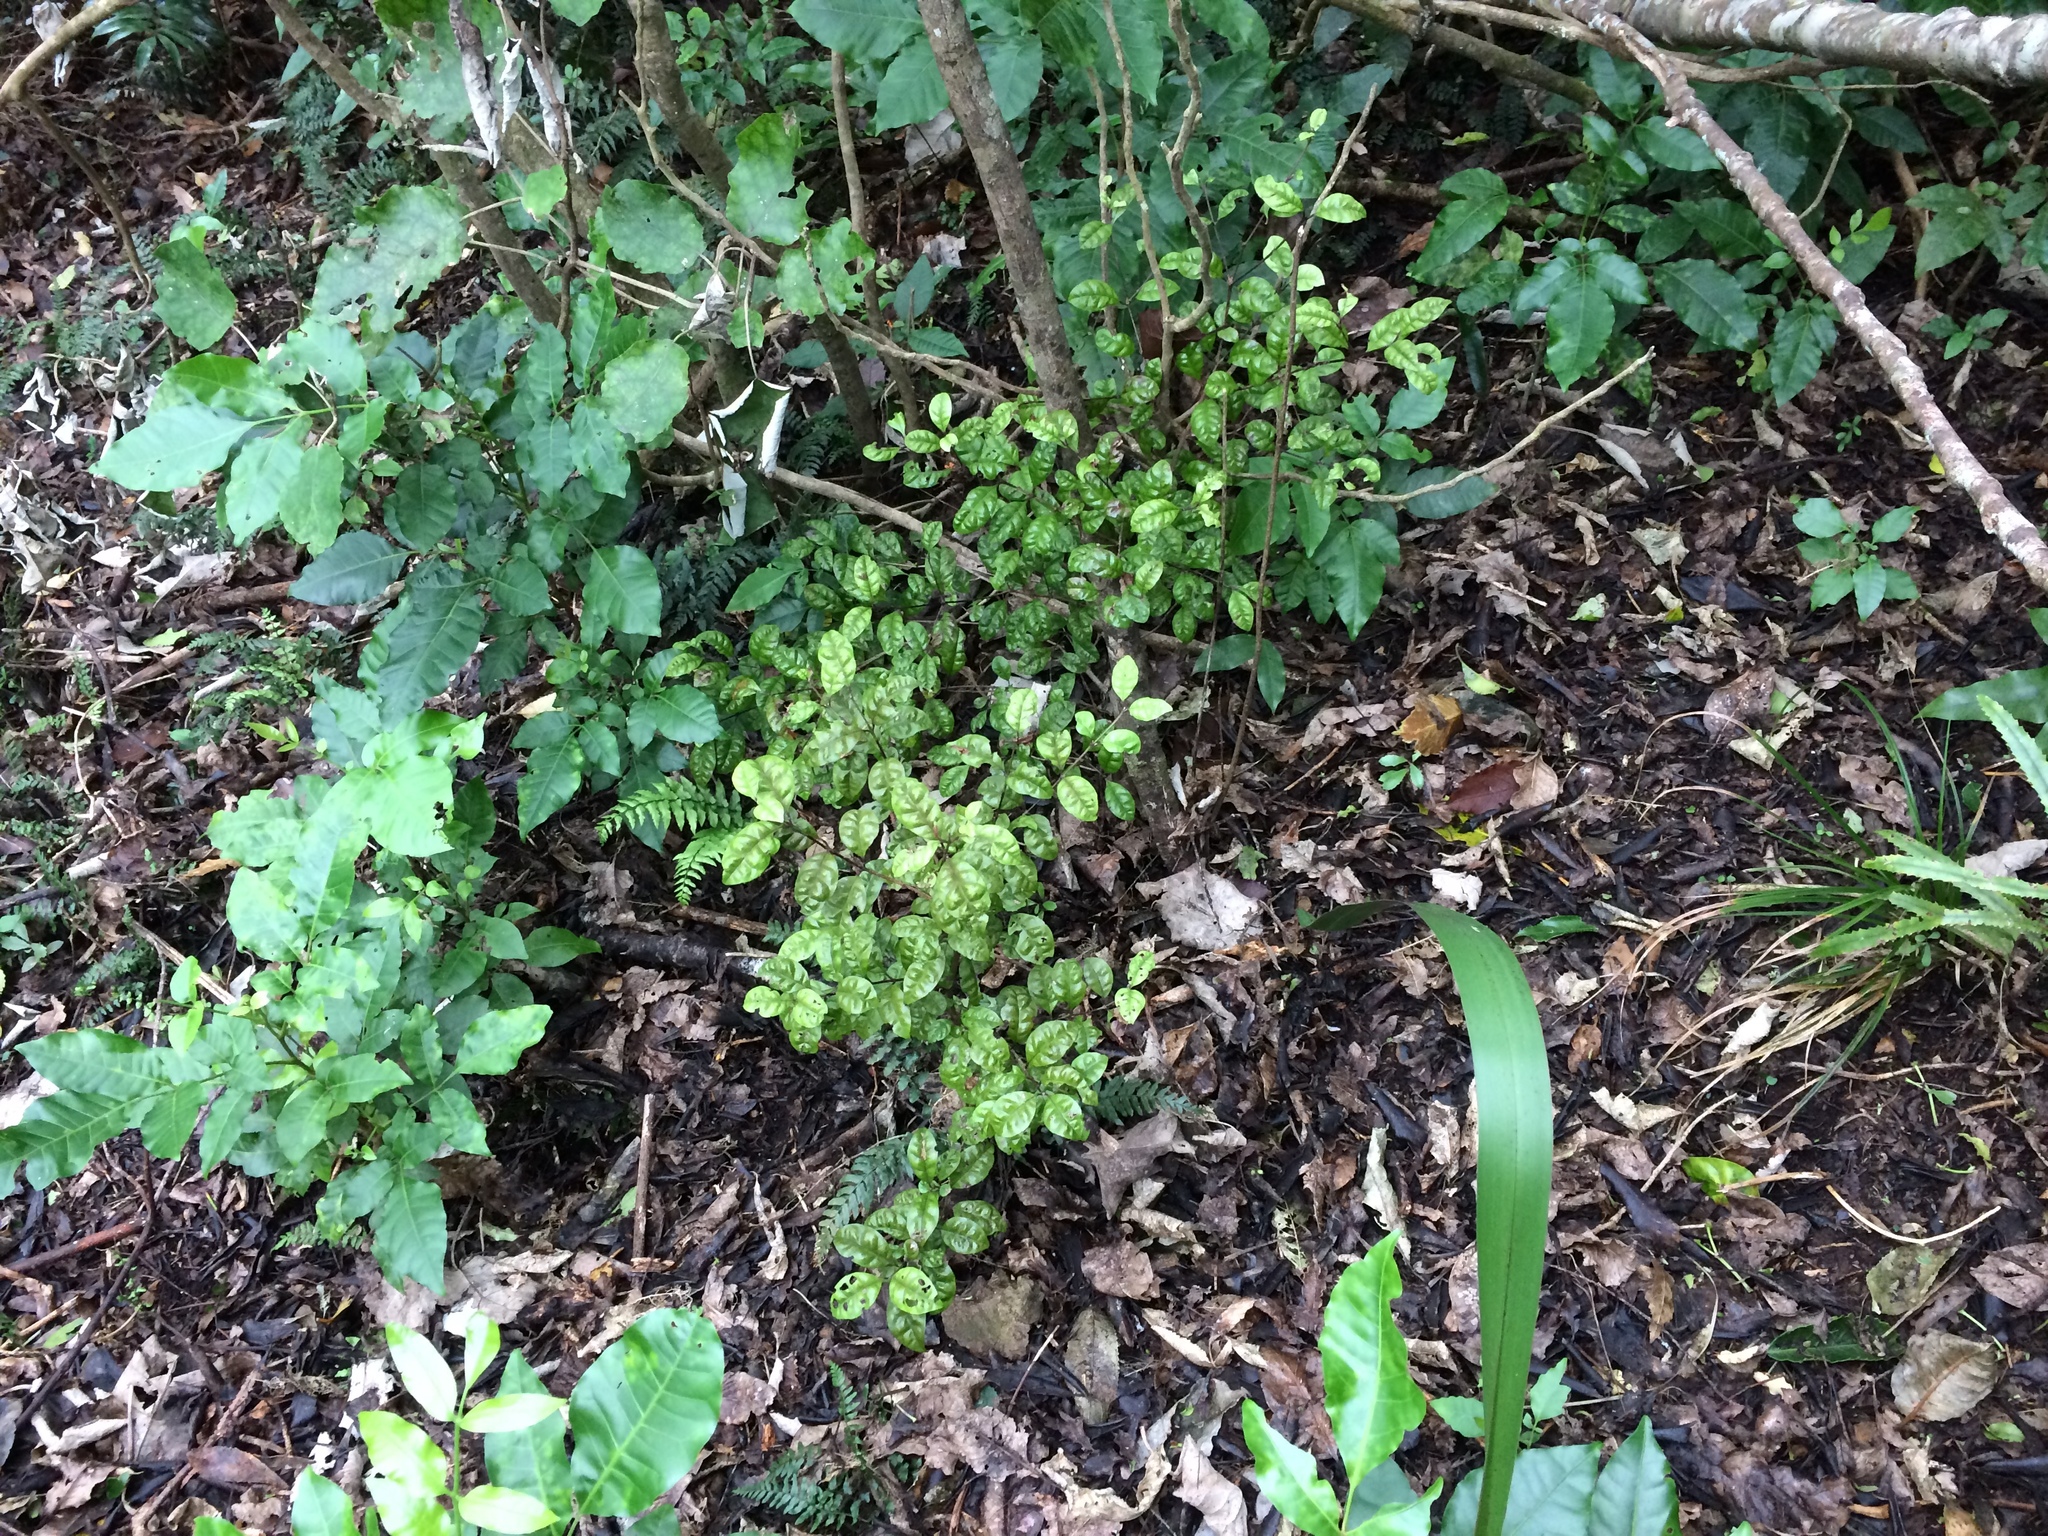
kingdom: Plantae
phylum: Tracheophyta
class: Magnoliopsida
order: Myrtales
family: Myrtaceae
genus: Lophomyrtus
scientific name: Lophomyrtus bullata
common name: Rama rama
